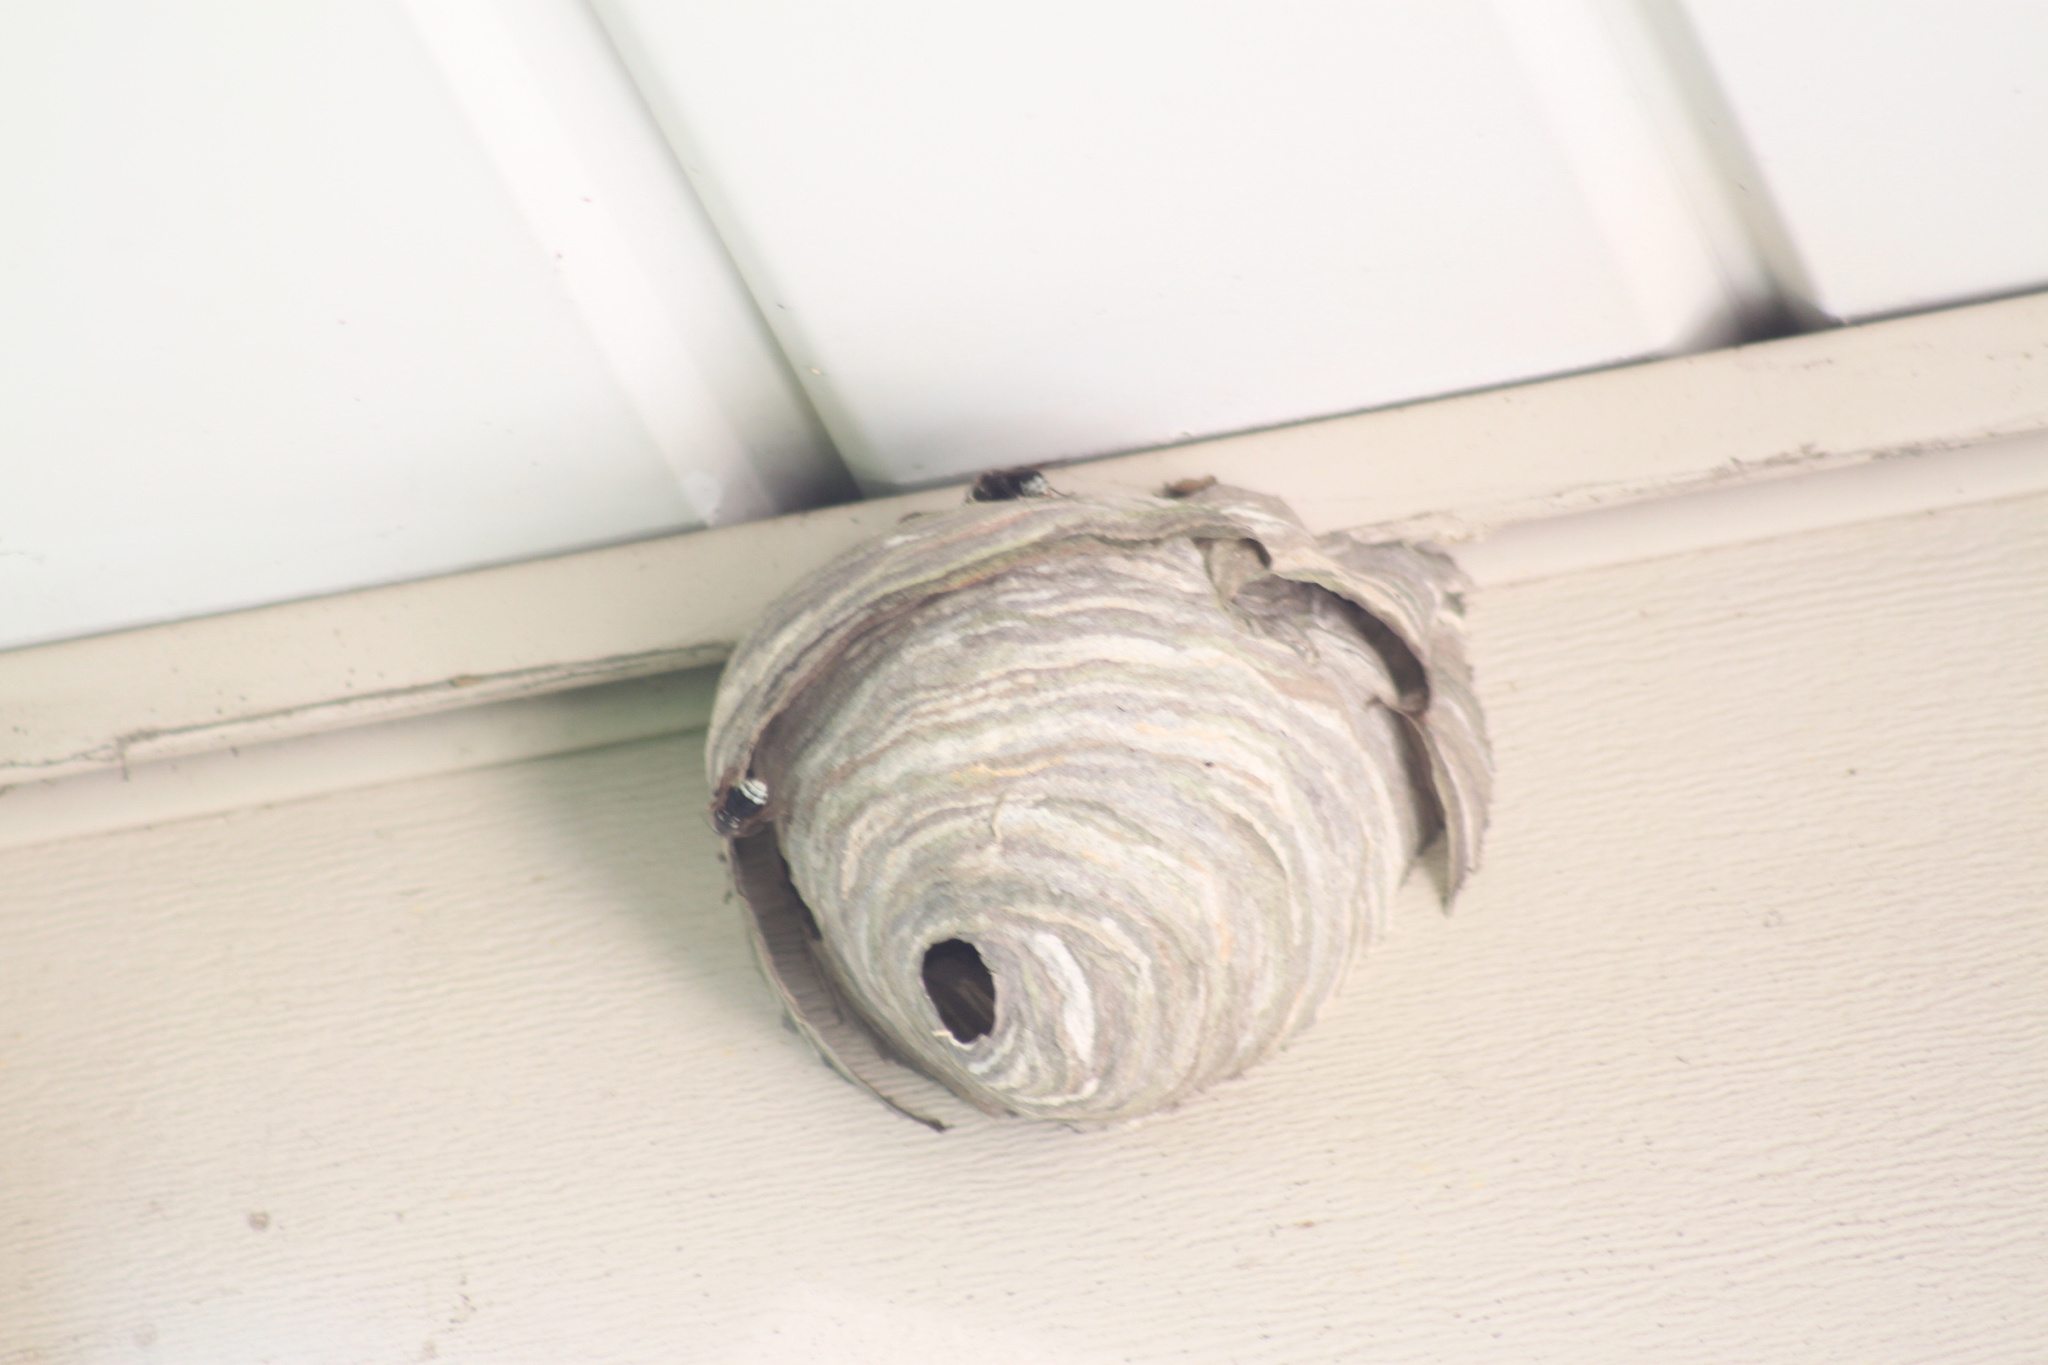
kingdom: Animalia
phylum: Arthropoda
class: Insecta
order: Hymenoptera
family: Vespidae
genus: Dolichovespula
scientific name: Dolichovespula maculata
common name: Bald-faced hornet
